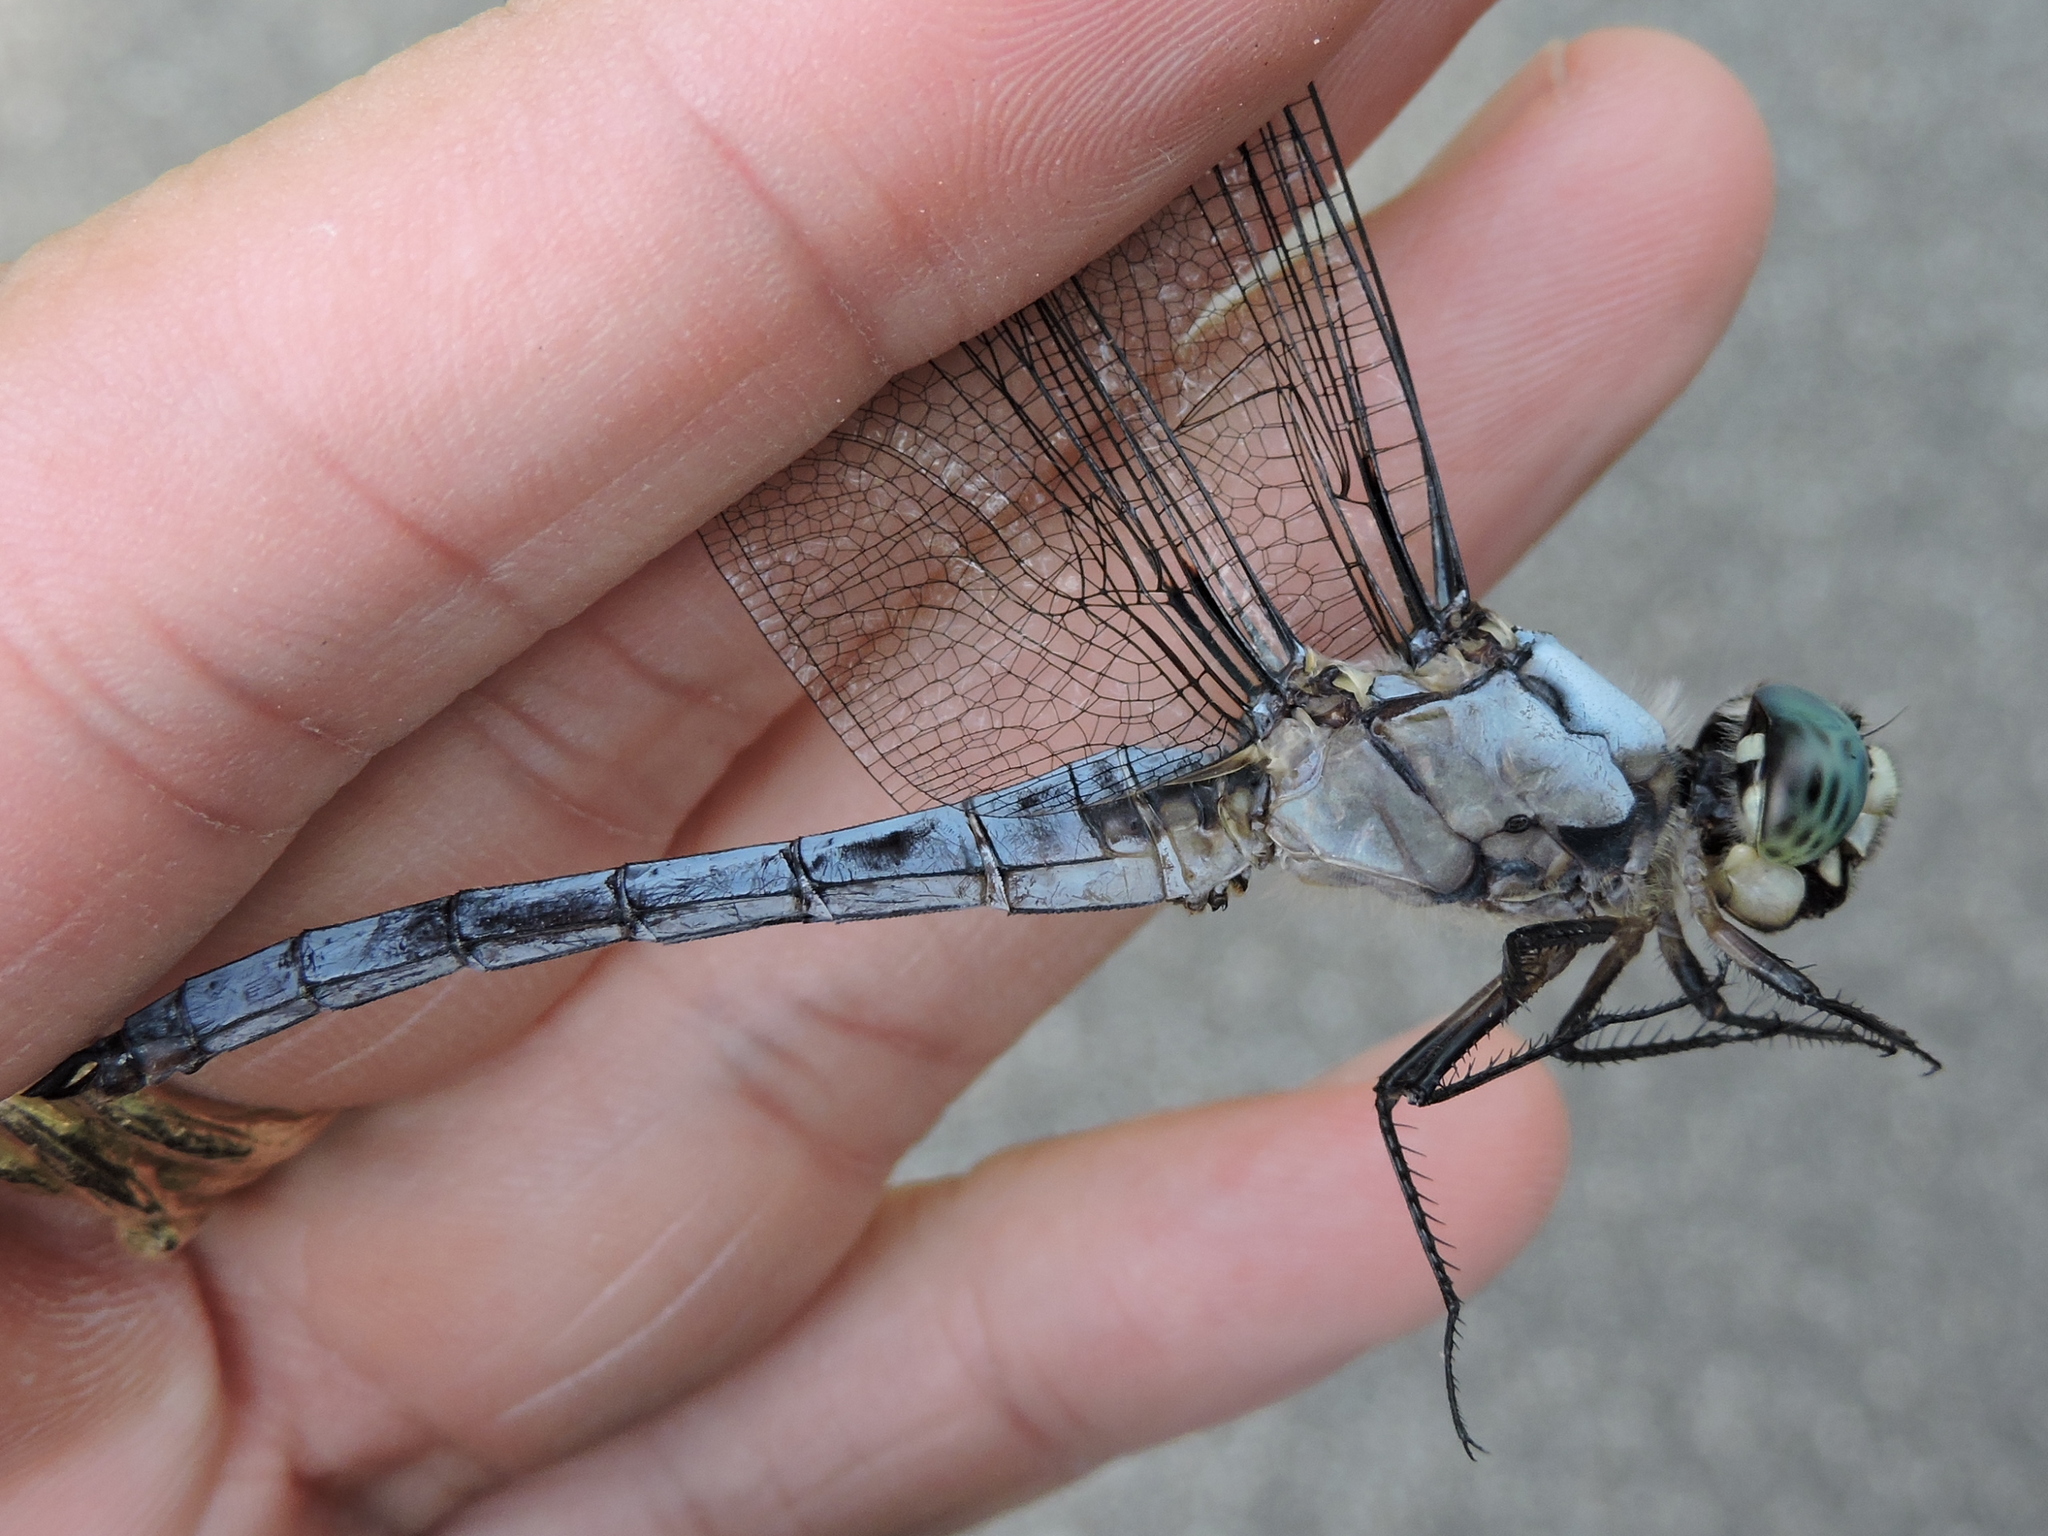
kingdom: Animalia
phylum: Arthropoda
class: Insecta
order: Odonata
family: Libellulidae
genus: Libellula
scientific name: Libellula vibrans
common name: Great blue skimmer
